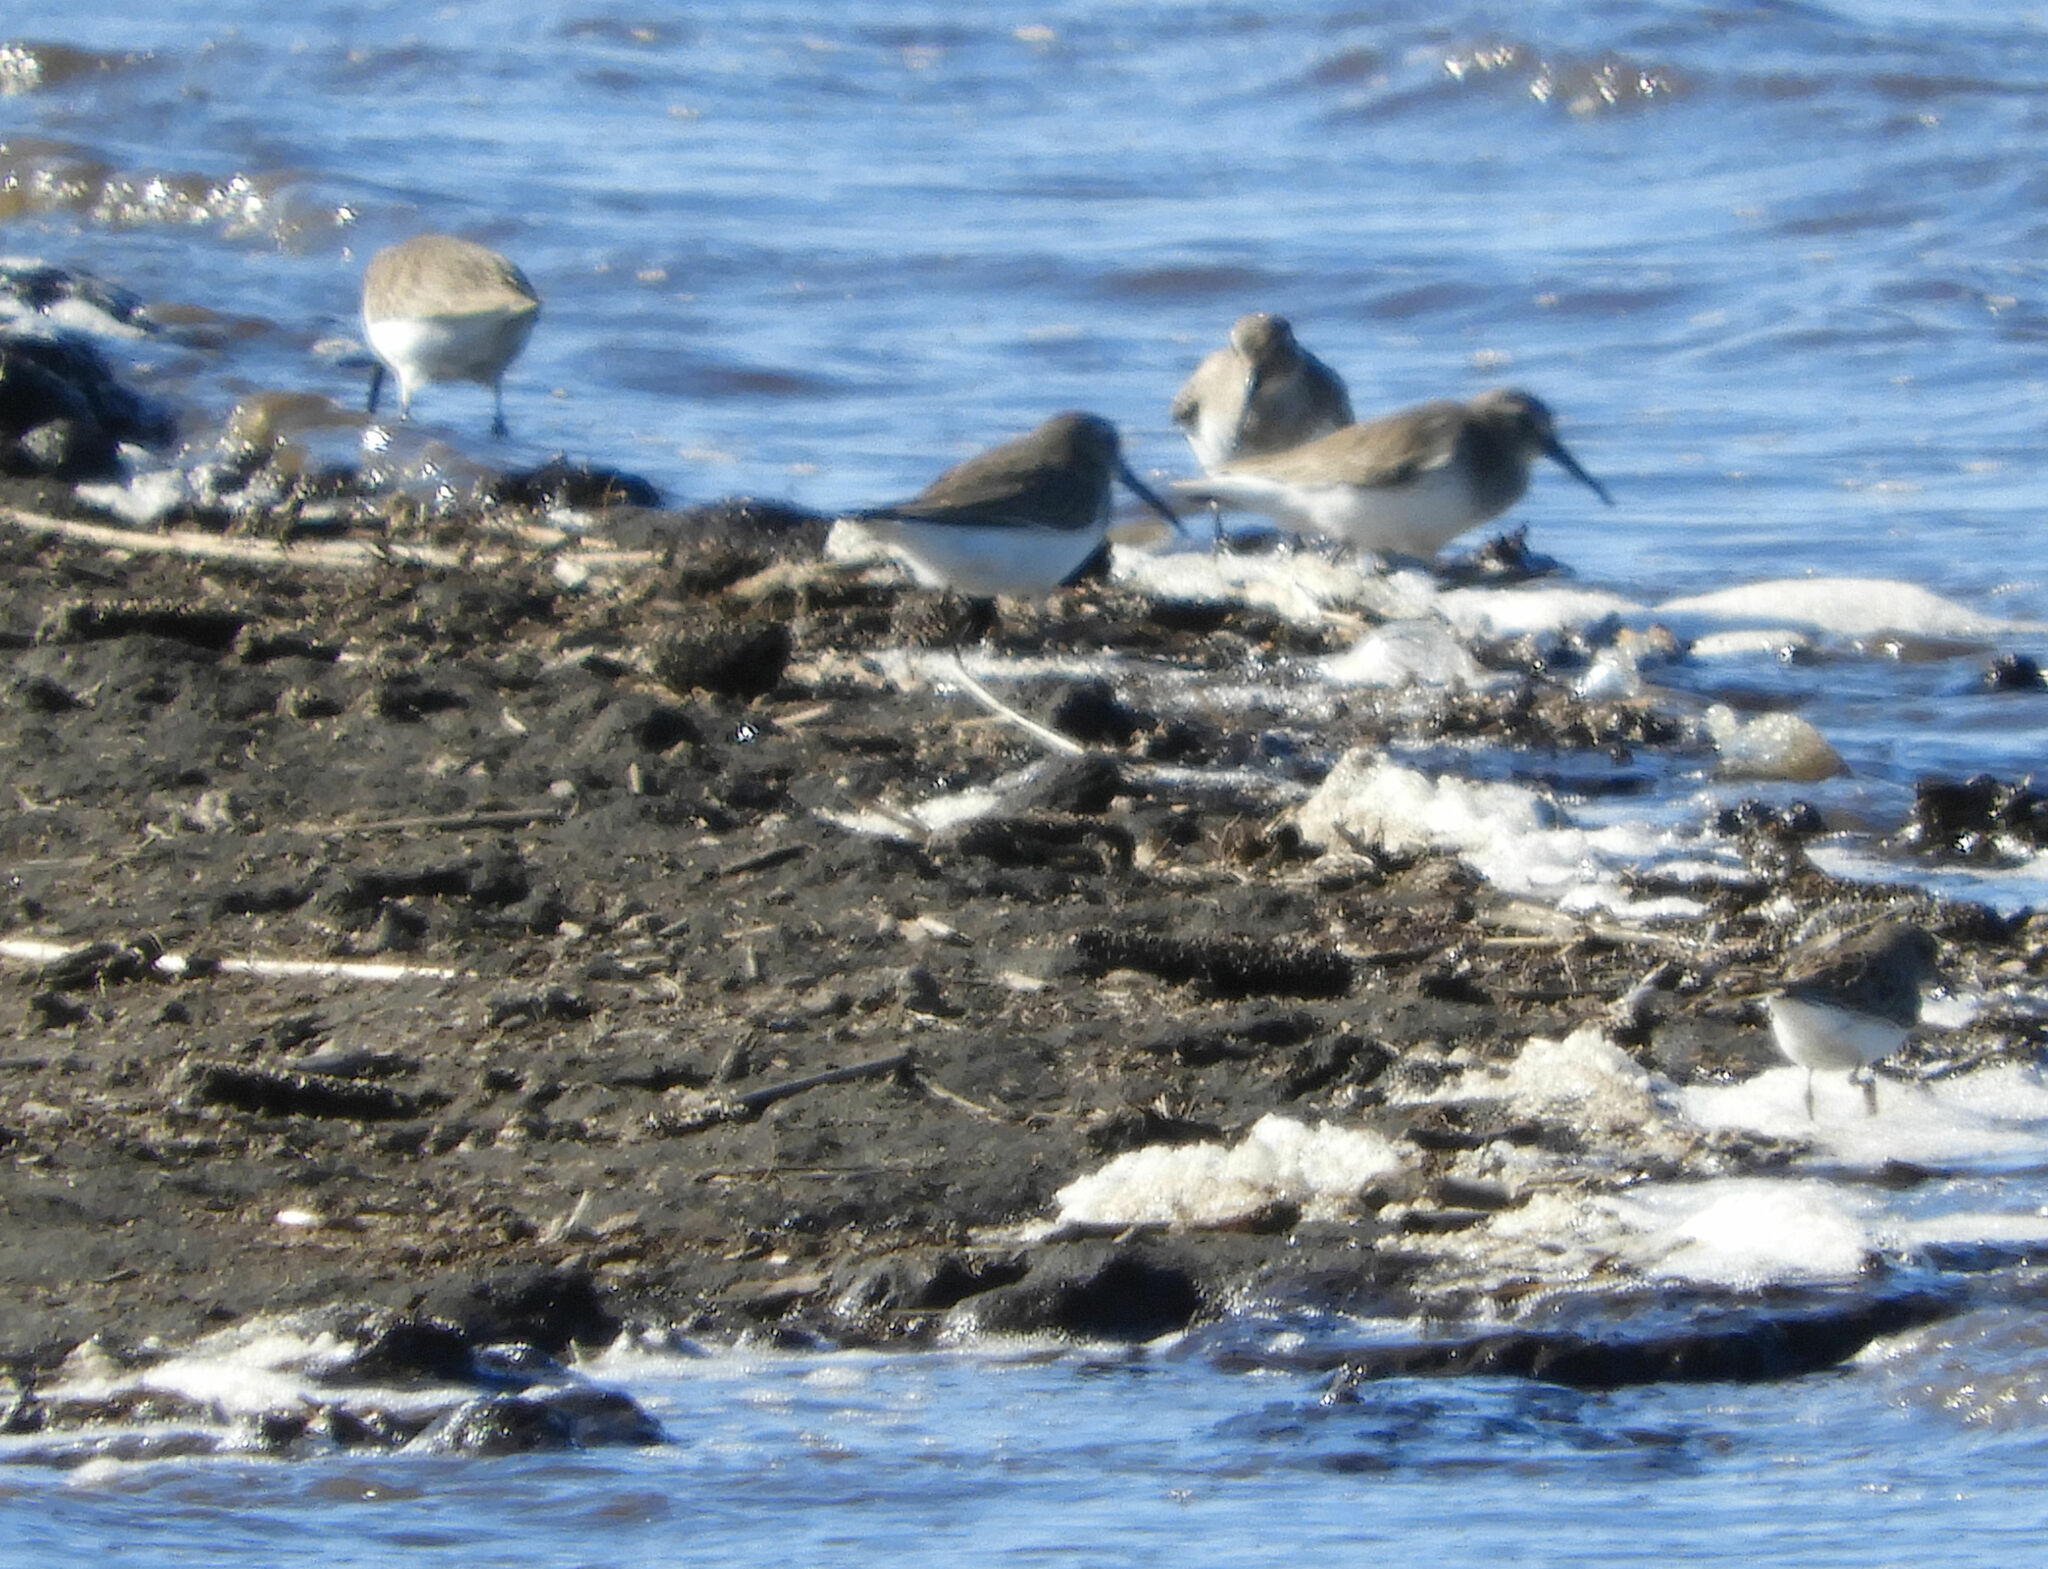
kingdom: Animalia
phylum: Chordata
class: Aves
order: Charadriiformes
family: Scolopacidae
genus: Calidris
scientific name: Calidris alpina
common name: Dunlin
